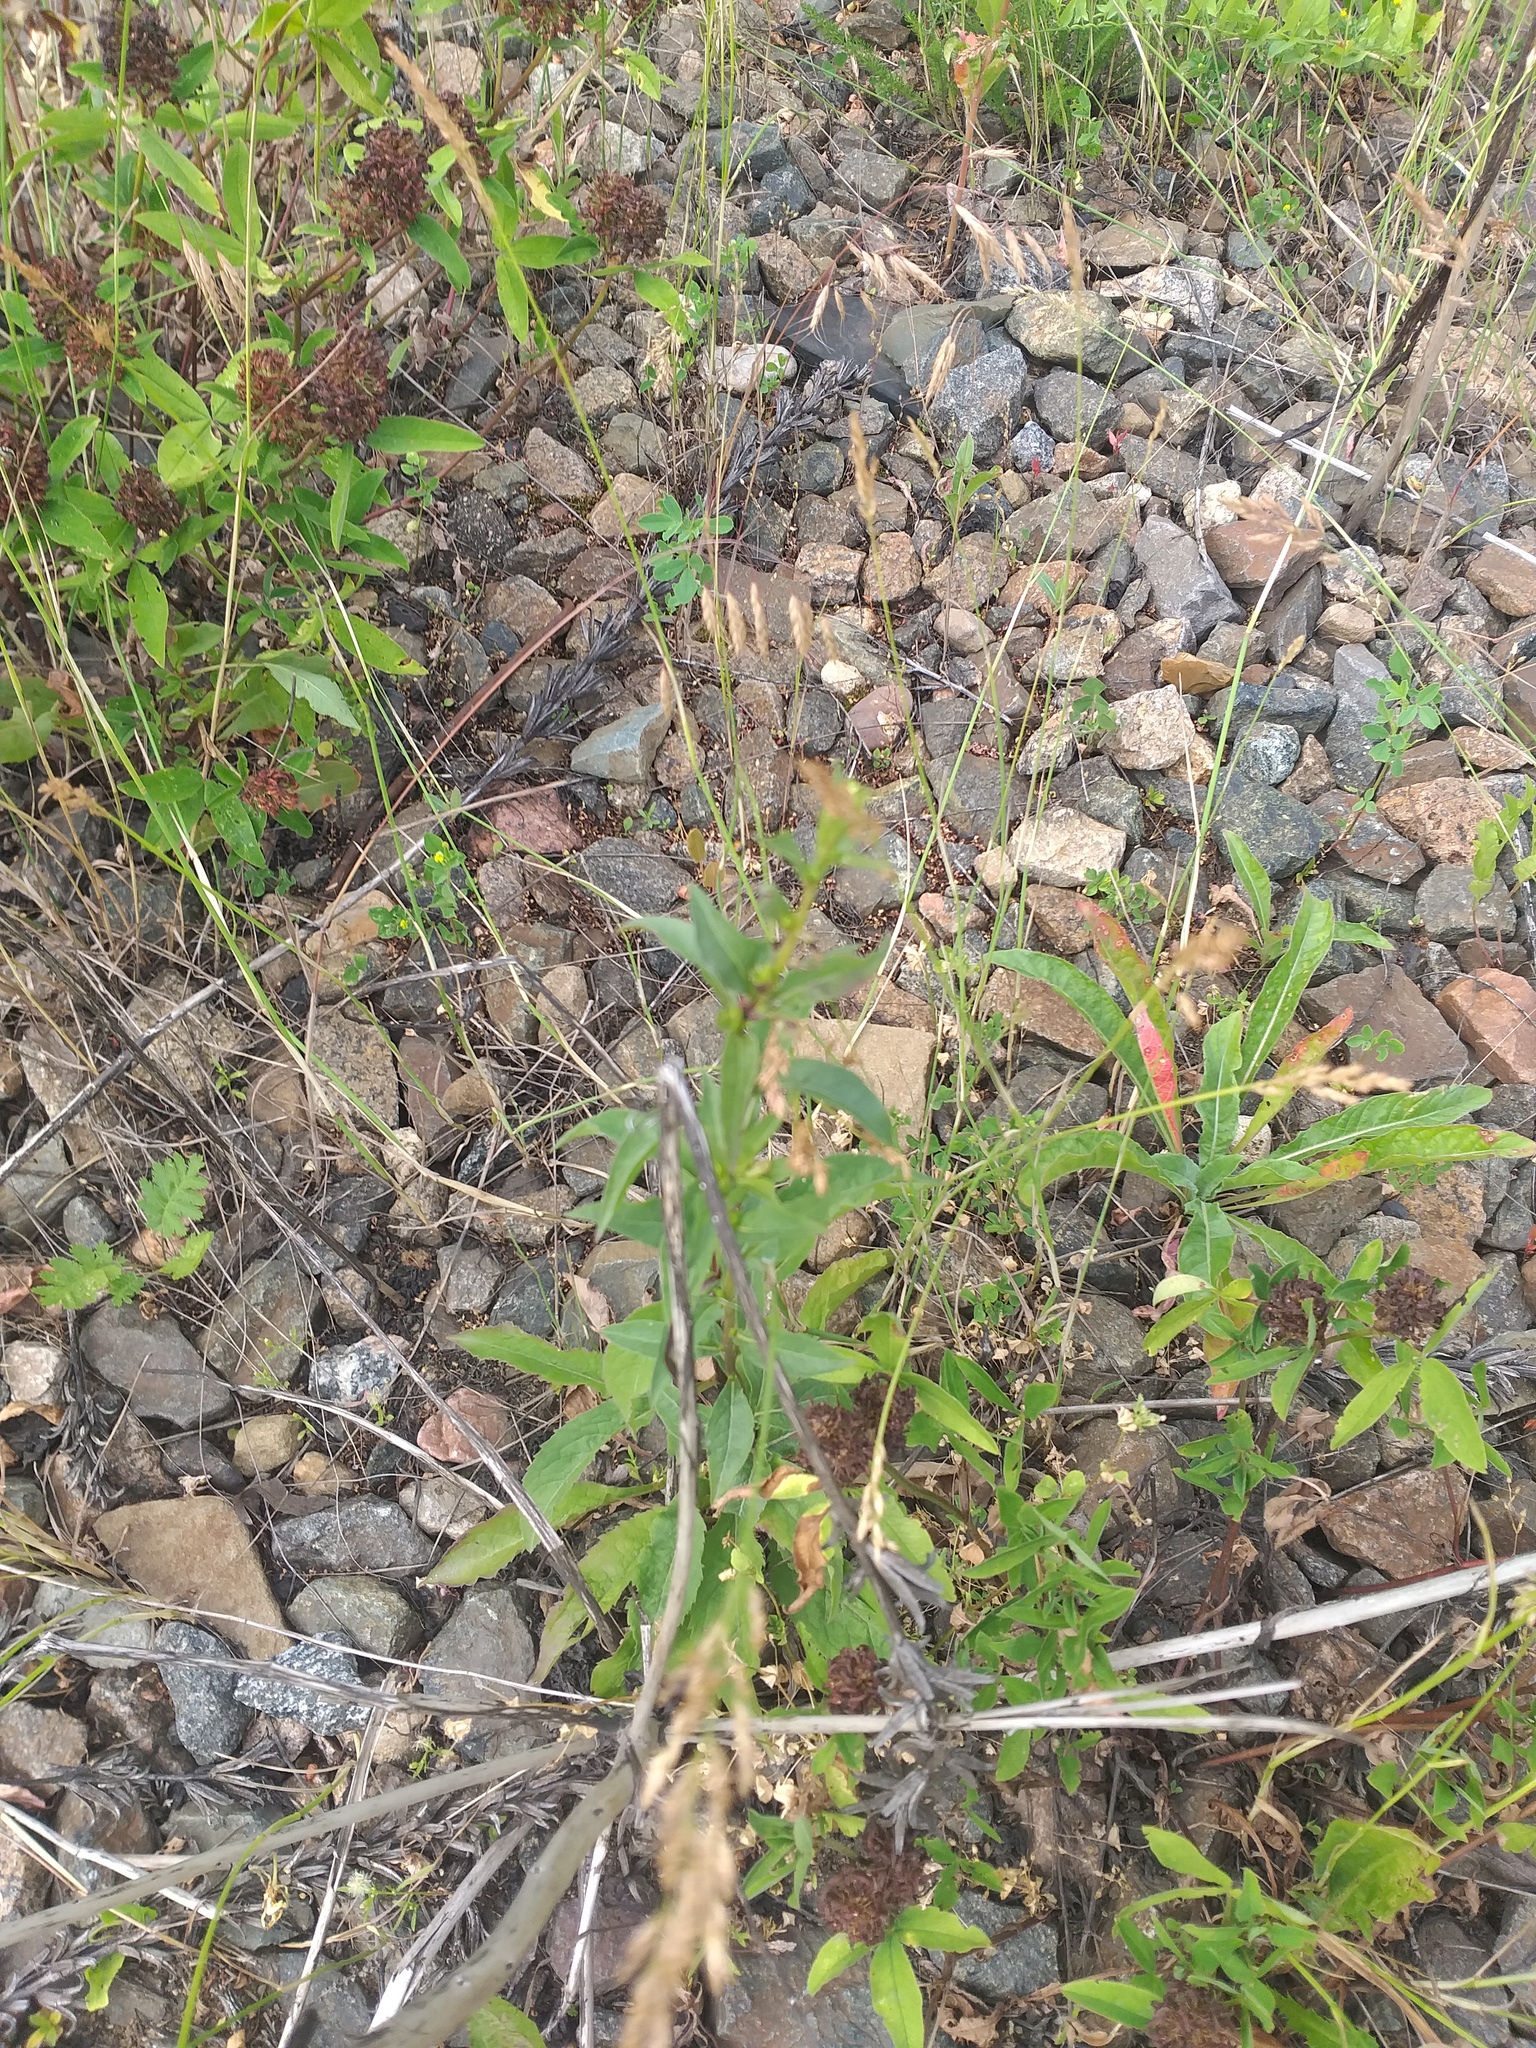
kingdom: Plantae
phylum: Tracheophyta
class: Magnoliopsida
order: Asterales
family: Asteraceae
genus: Solidago
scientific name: Solidago virgaurea
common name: Goldenrod
